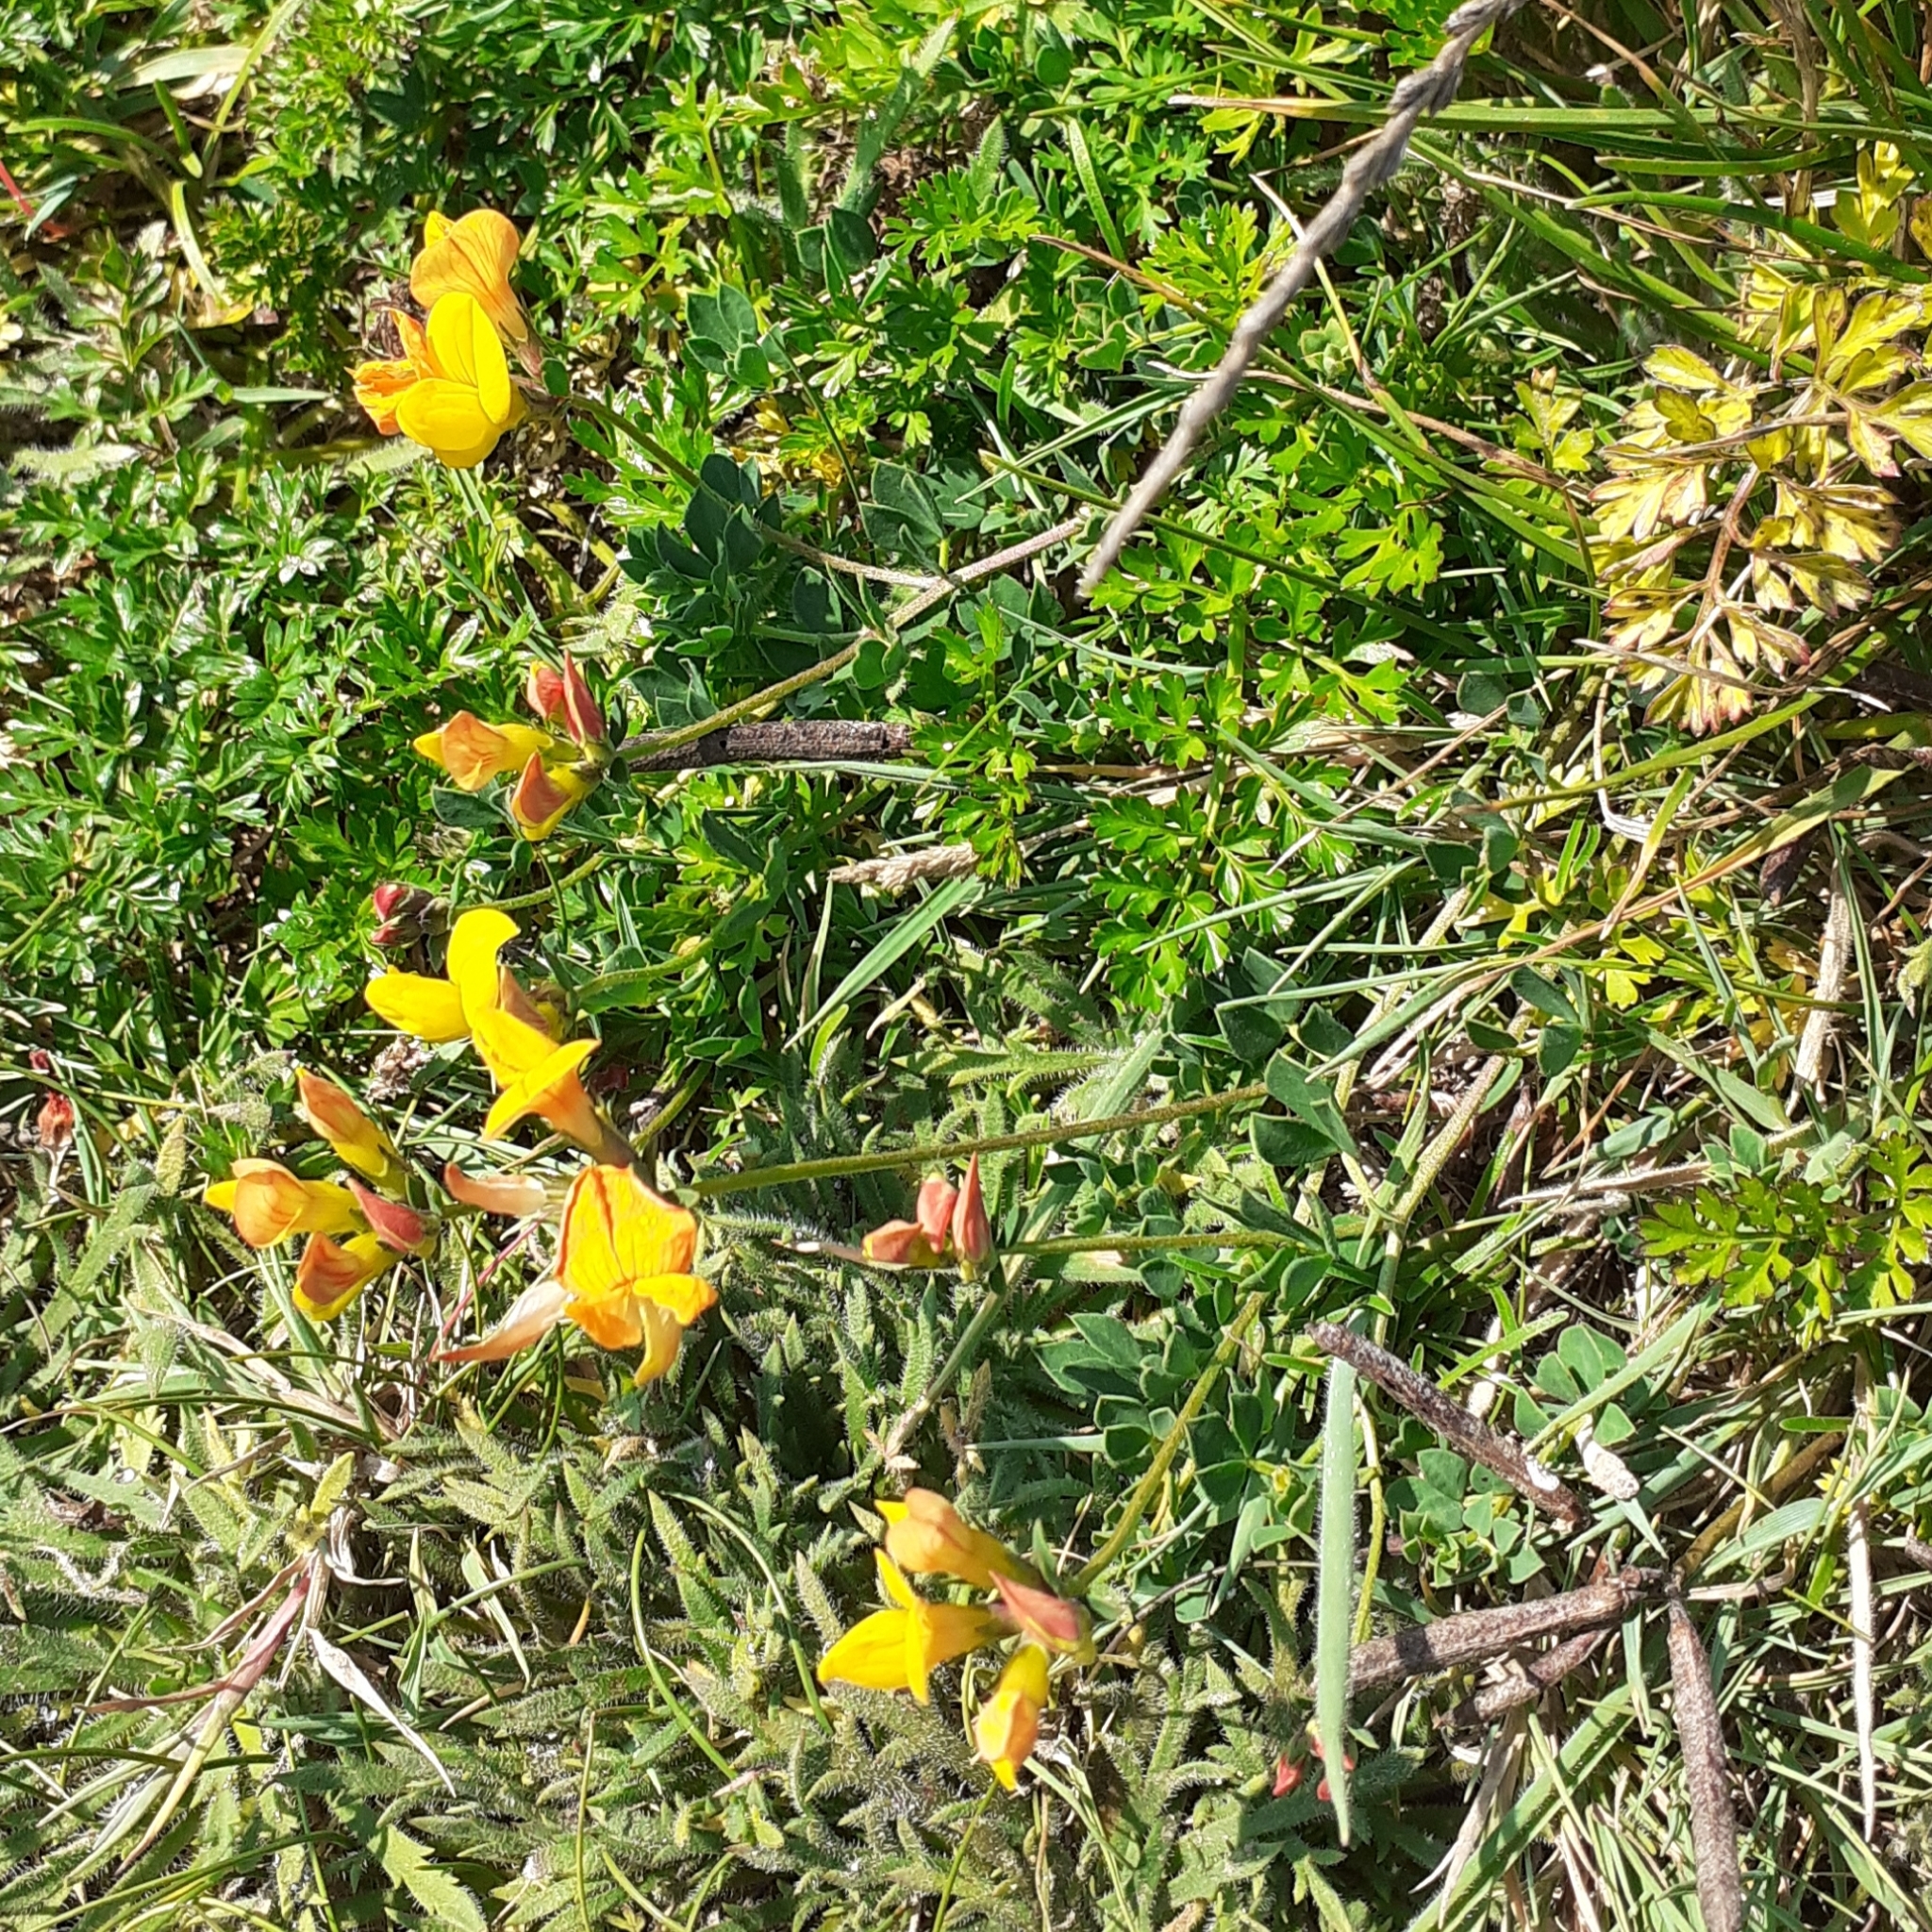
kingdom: Plantae
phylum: Tracheophyta
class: Magnoliopsida
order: Fabales
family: Fabaceae
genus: Lotus
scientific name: Lotus corniculatus
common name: Common bird's-foot-trefoil
